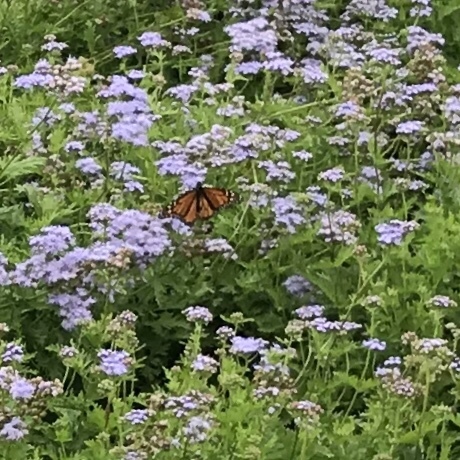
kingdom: Animalia
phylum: Arthropoda
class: Insecta
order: Lepidoptera
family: Nymphalidae
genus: Danaus
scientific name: Danaus plexippus
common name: Monarch
